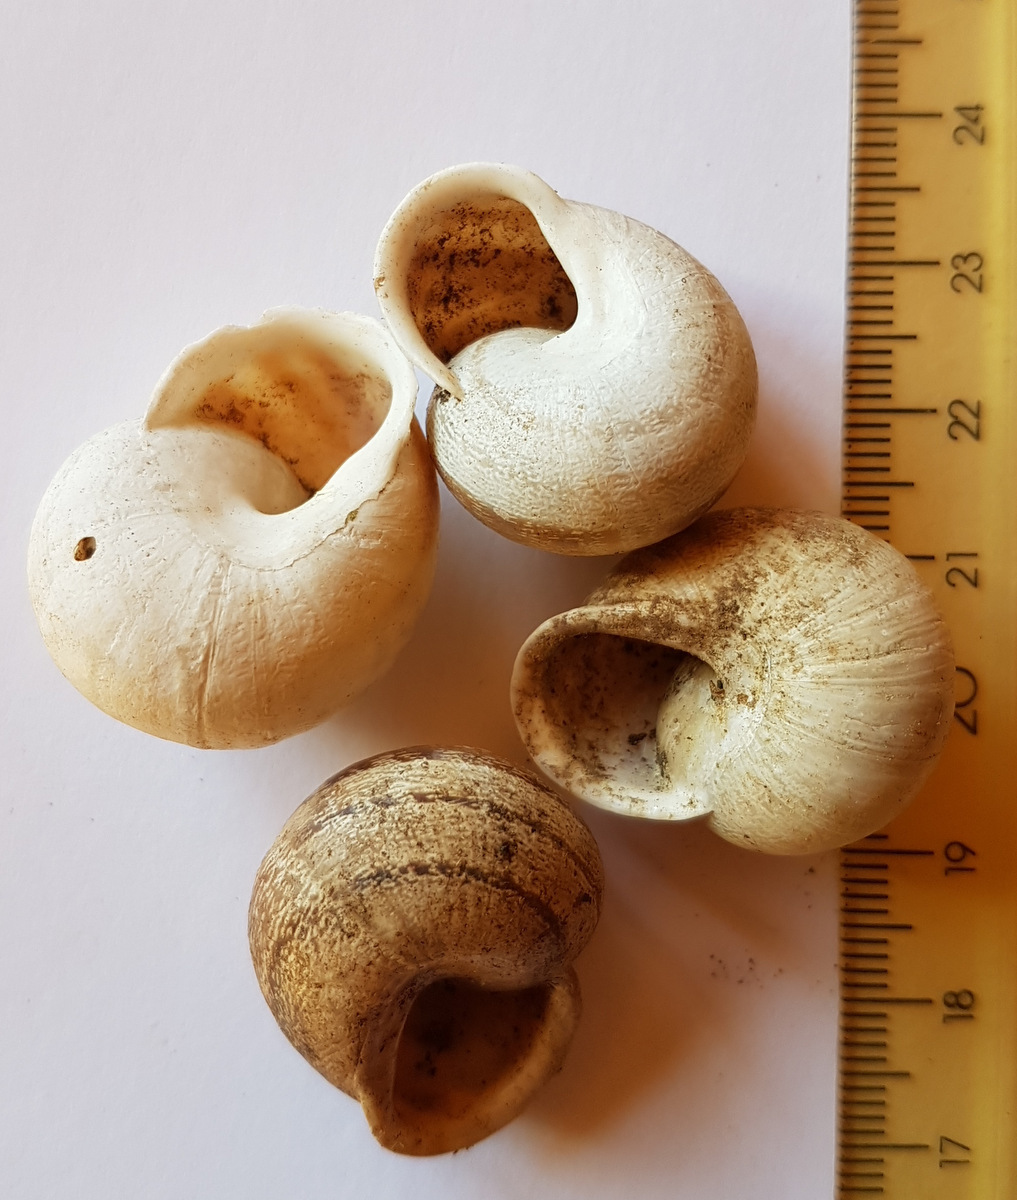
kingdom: Animalia
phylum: Mollusca
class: Gastropoda
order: Stylommatophora
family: Helicidae
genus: Eobania
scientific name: Eobania vermiculata
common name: Chocolateband snail
